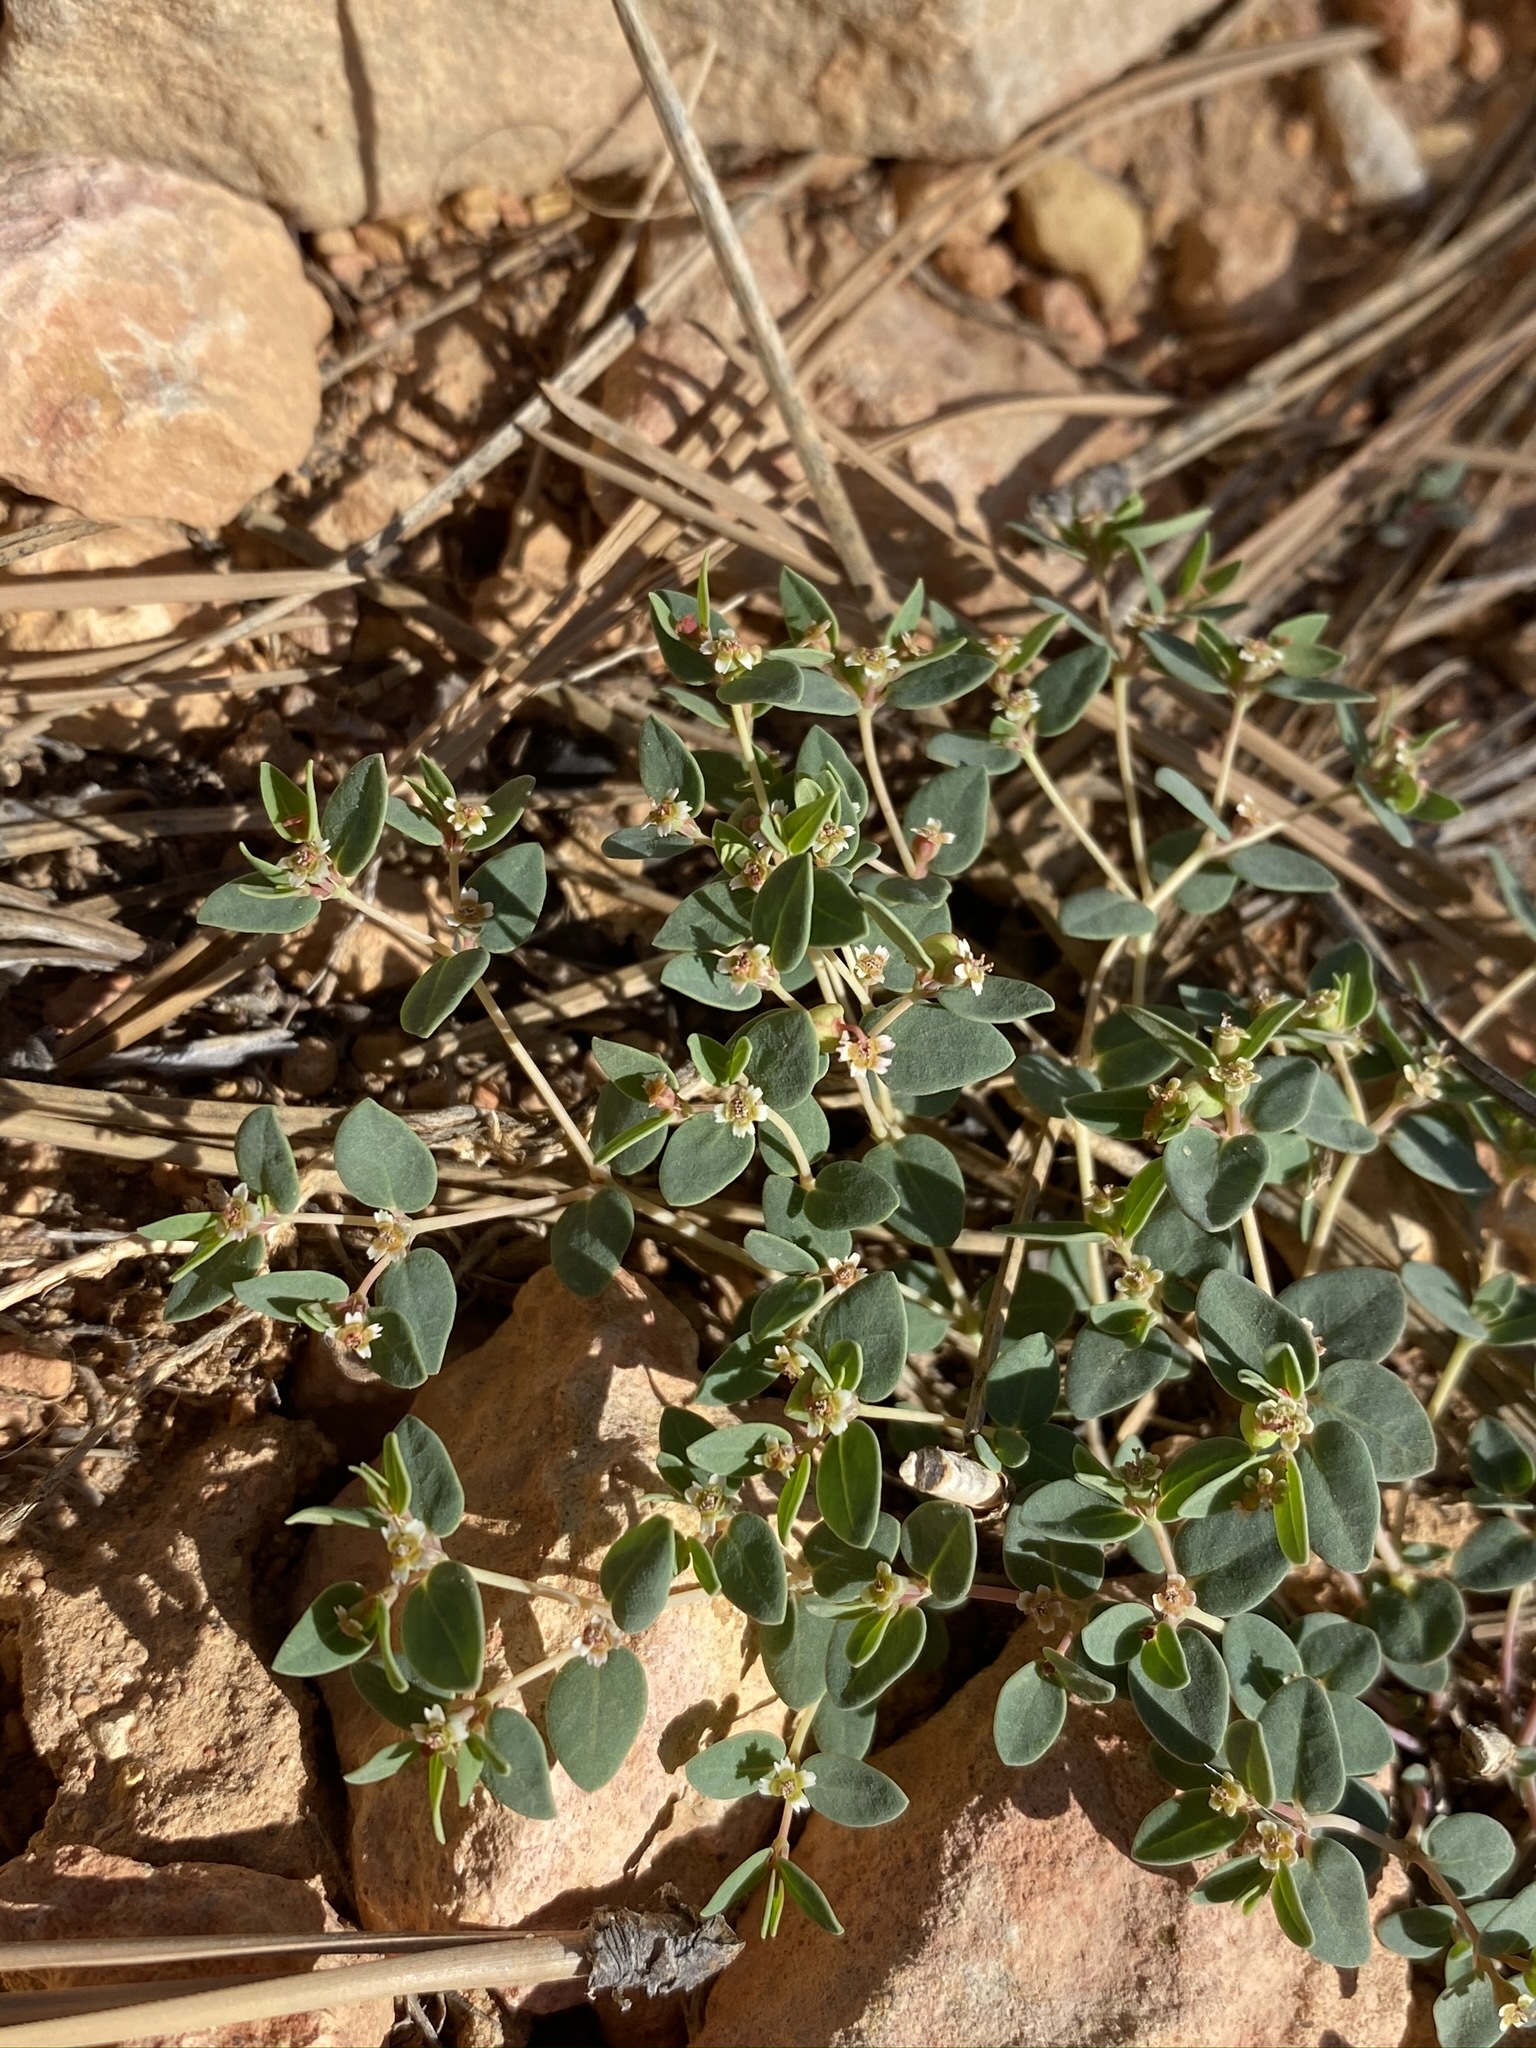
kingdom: Plantae
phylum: Tracheophyta
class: Magnoliopsida
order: Malpighiales
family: Euphorbiaceae
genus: Euphorbia
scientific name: Euphorbia fendleri
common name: Fendler's euphorbia
